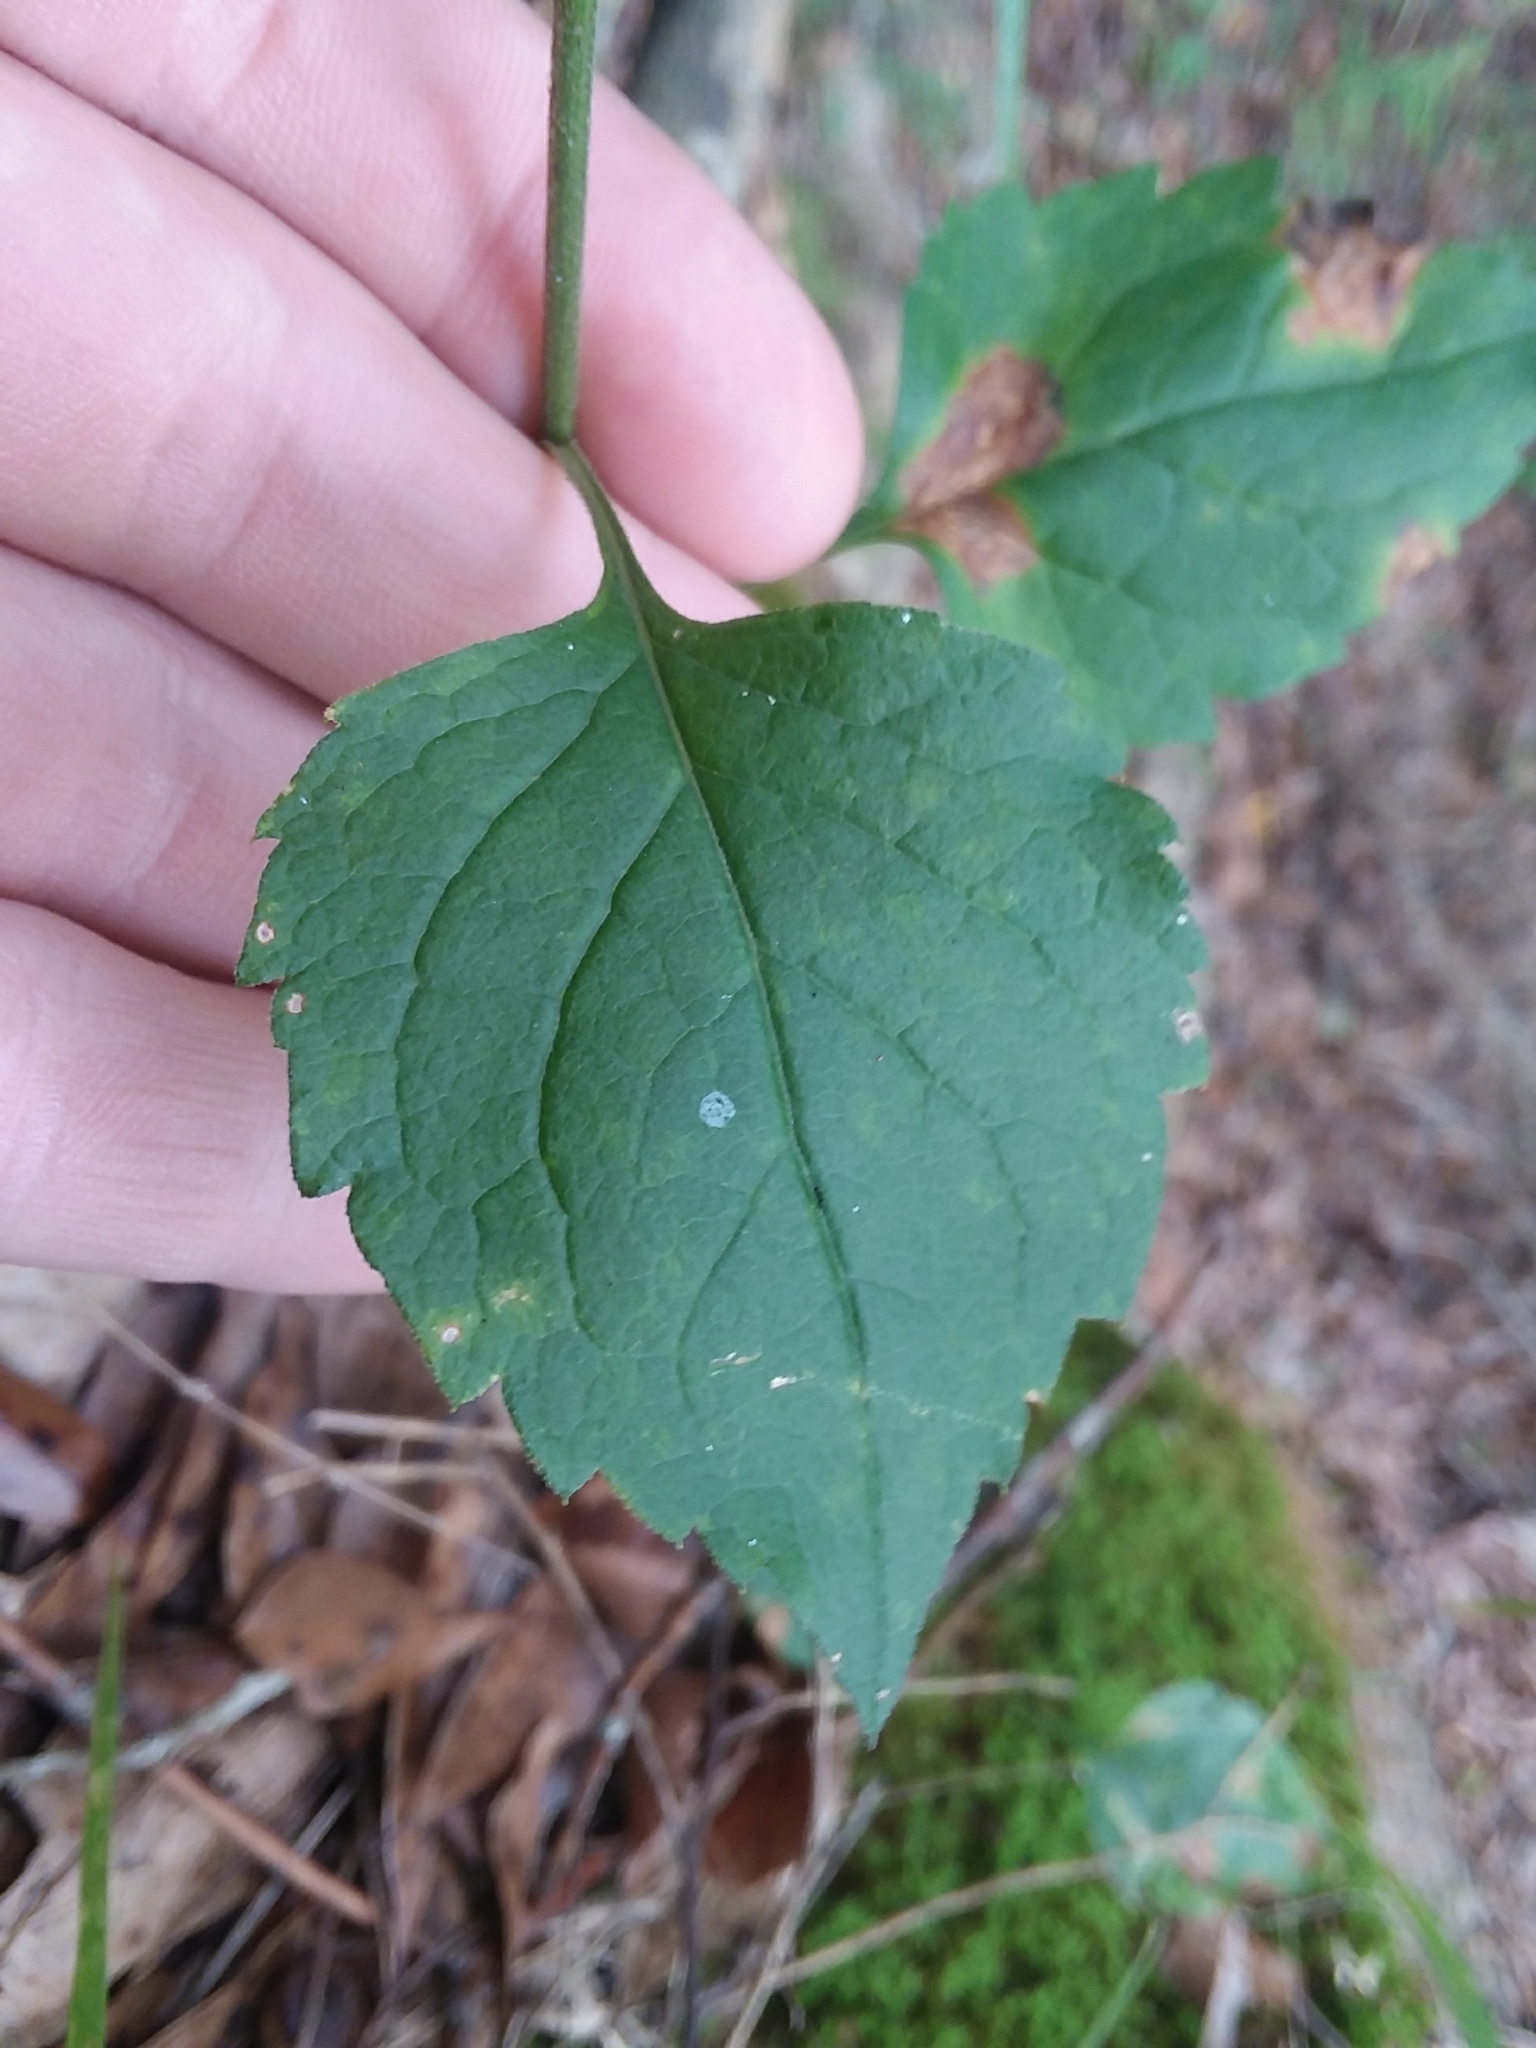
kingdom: Plantae
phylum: Tracheophyta
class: Magnoliopsida
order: Asterales
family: Asteraceae
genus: Solidago
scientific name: Solidago discoidea
